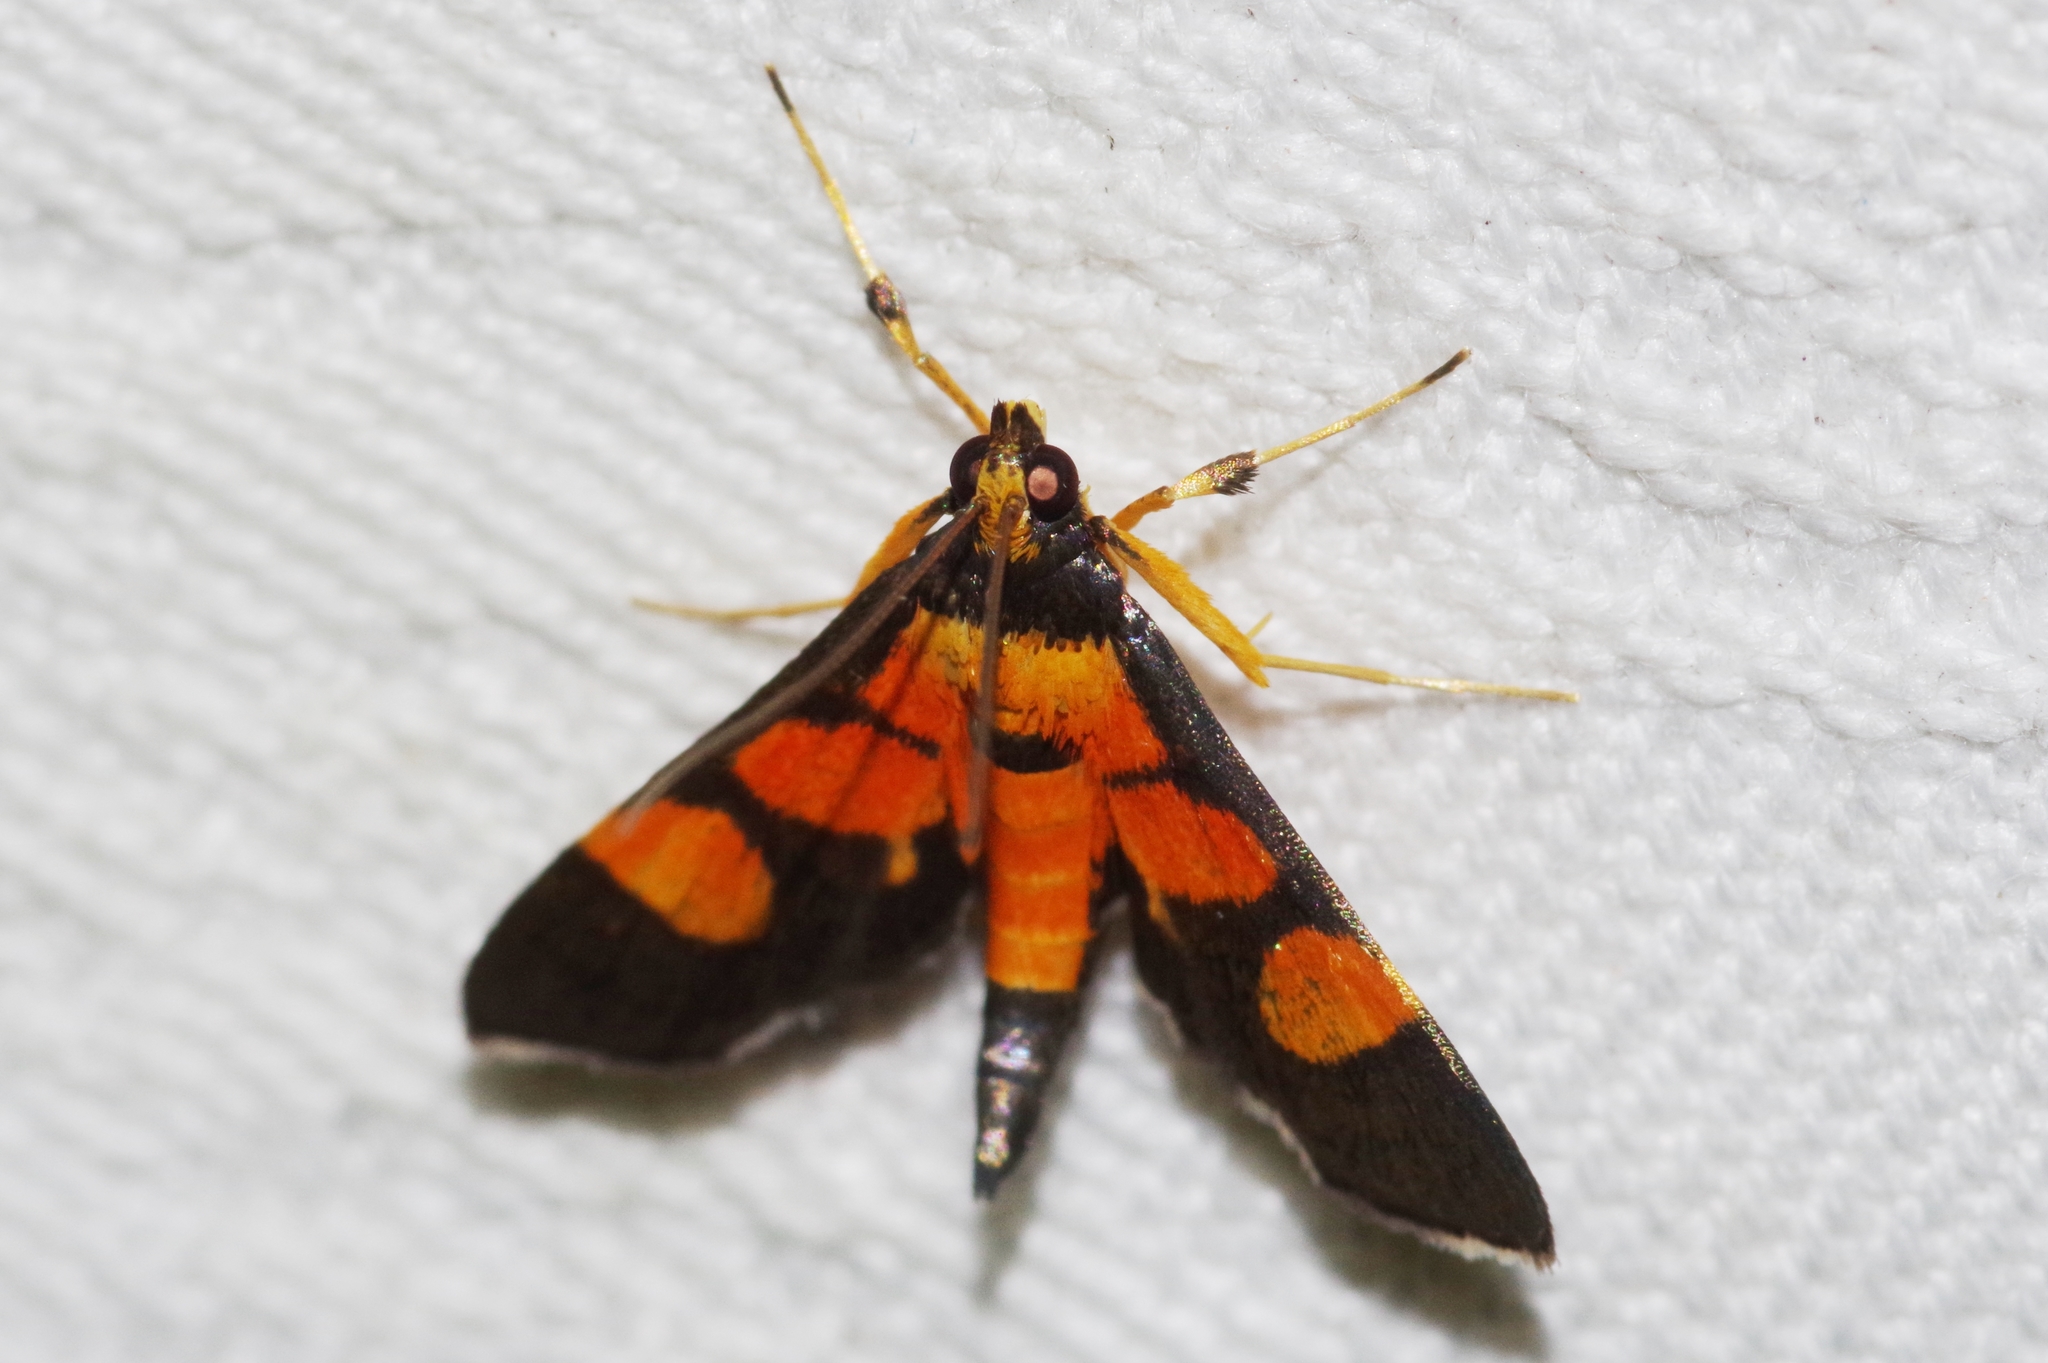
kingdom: Animalia
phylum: Arthropoda
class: Insecta
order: Lepidoptera
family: Crambidae
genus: Aethaloessa
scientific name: Aethaloessa calidalis
